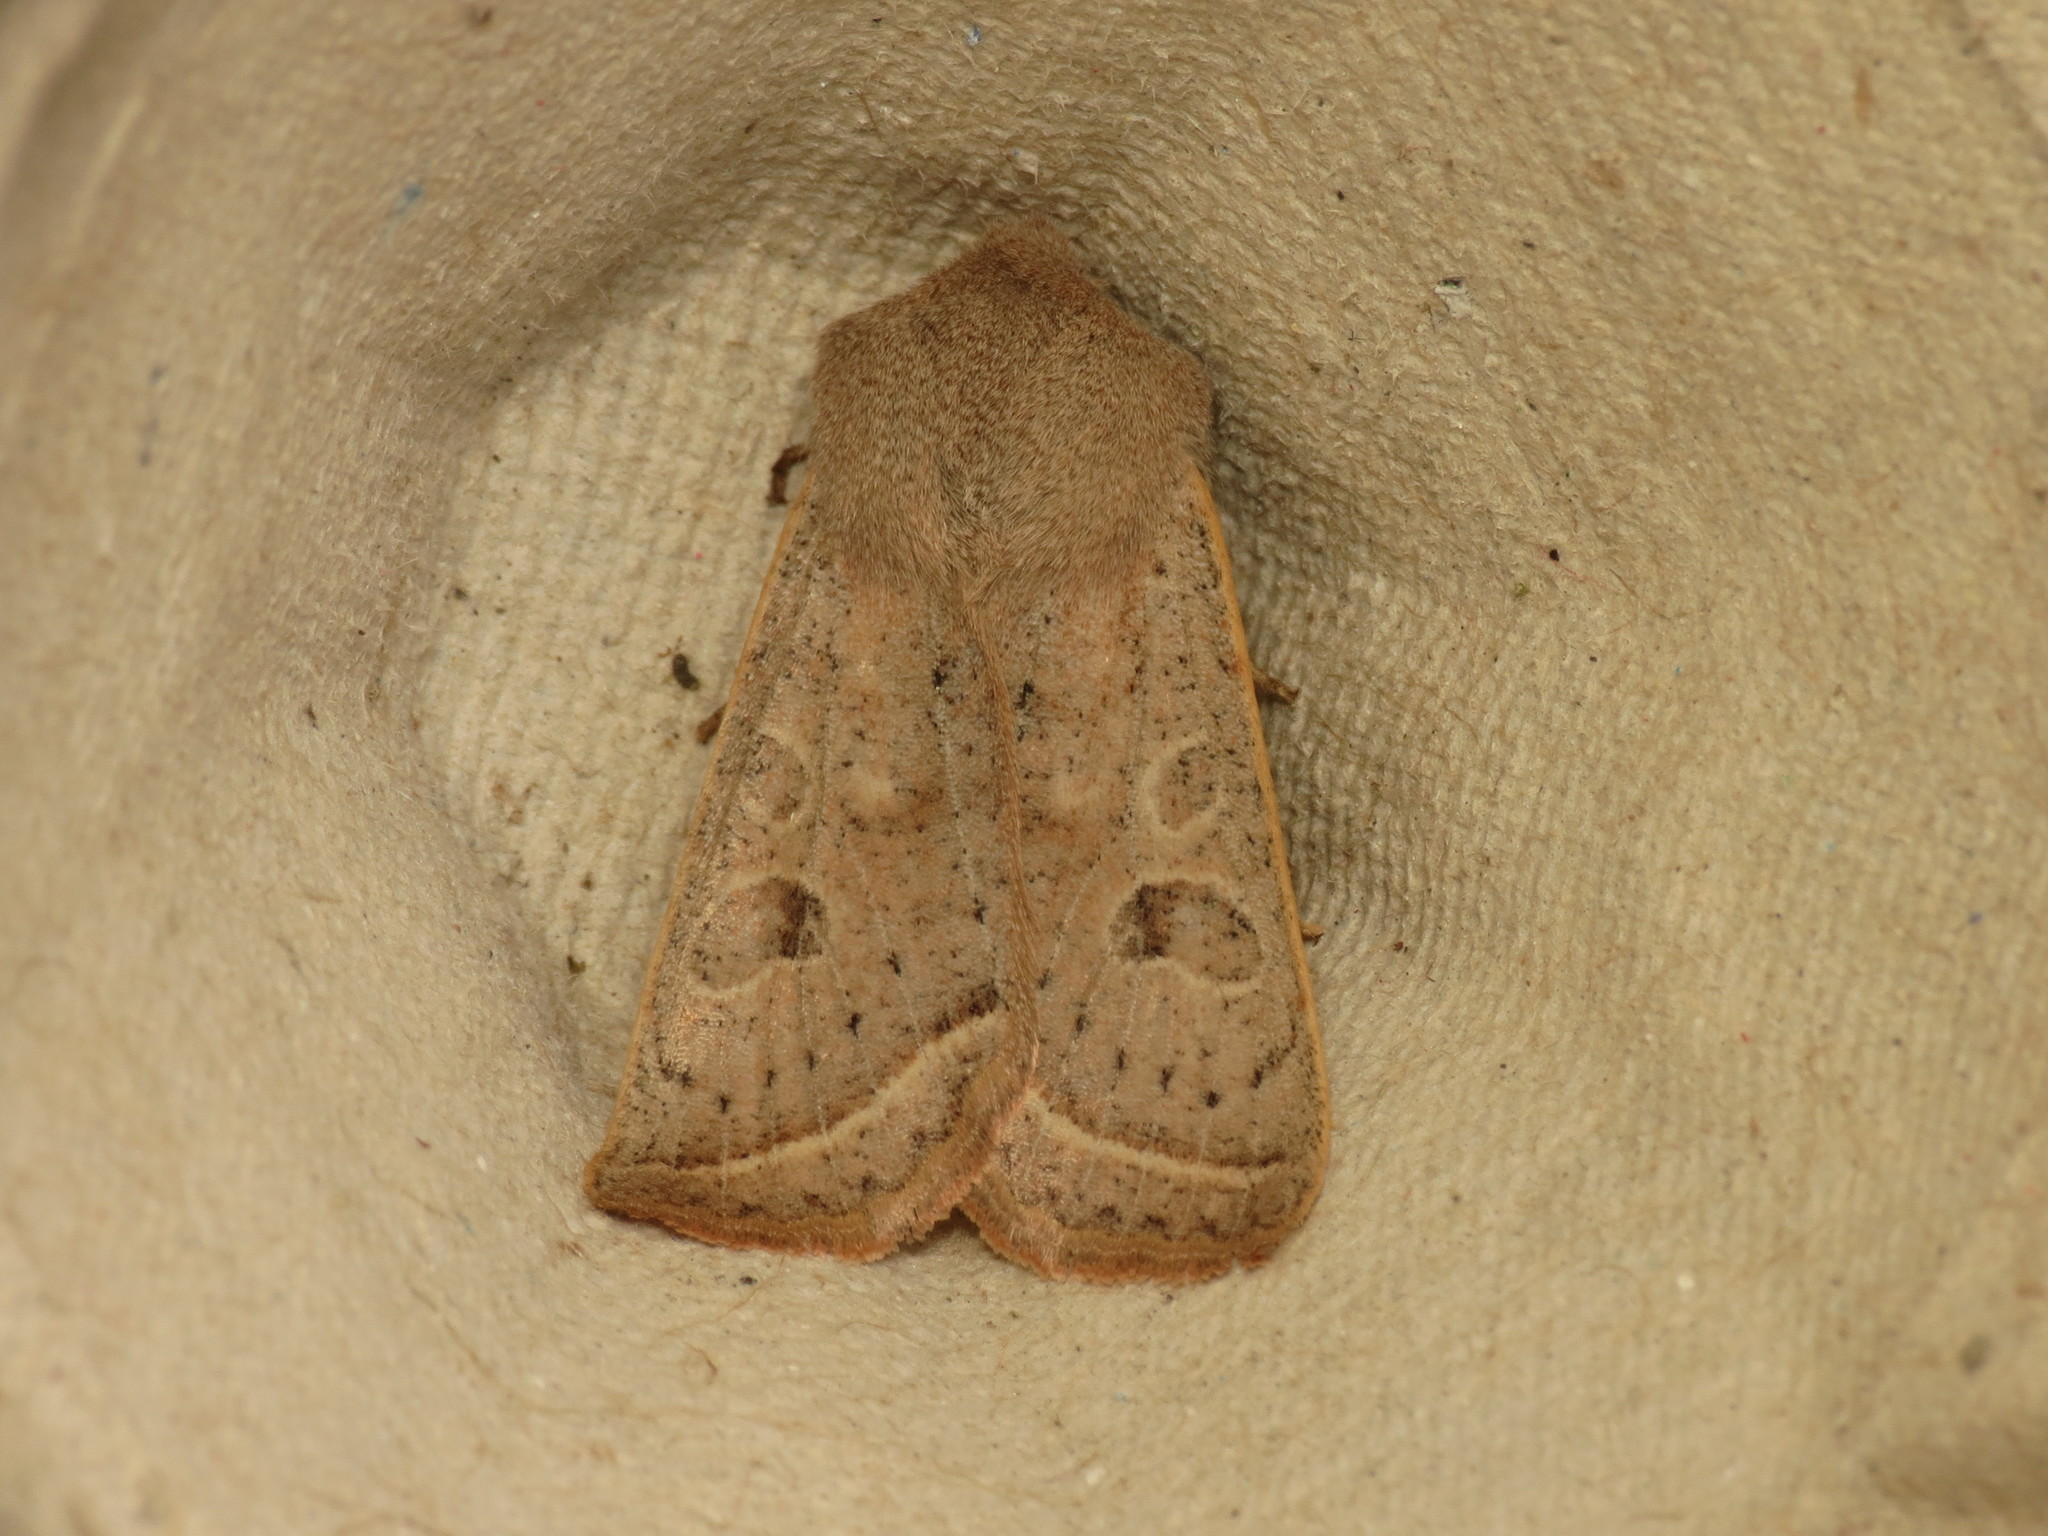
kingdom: Animalia
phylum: Arthropoda
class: Insecta
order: Lepidoptera
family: Noctuidae
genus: Orthosia
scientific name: Orthosia gracilis
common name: Powdered quaker
